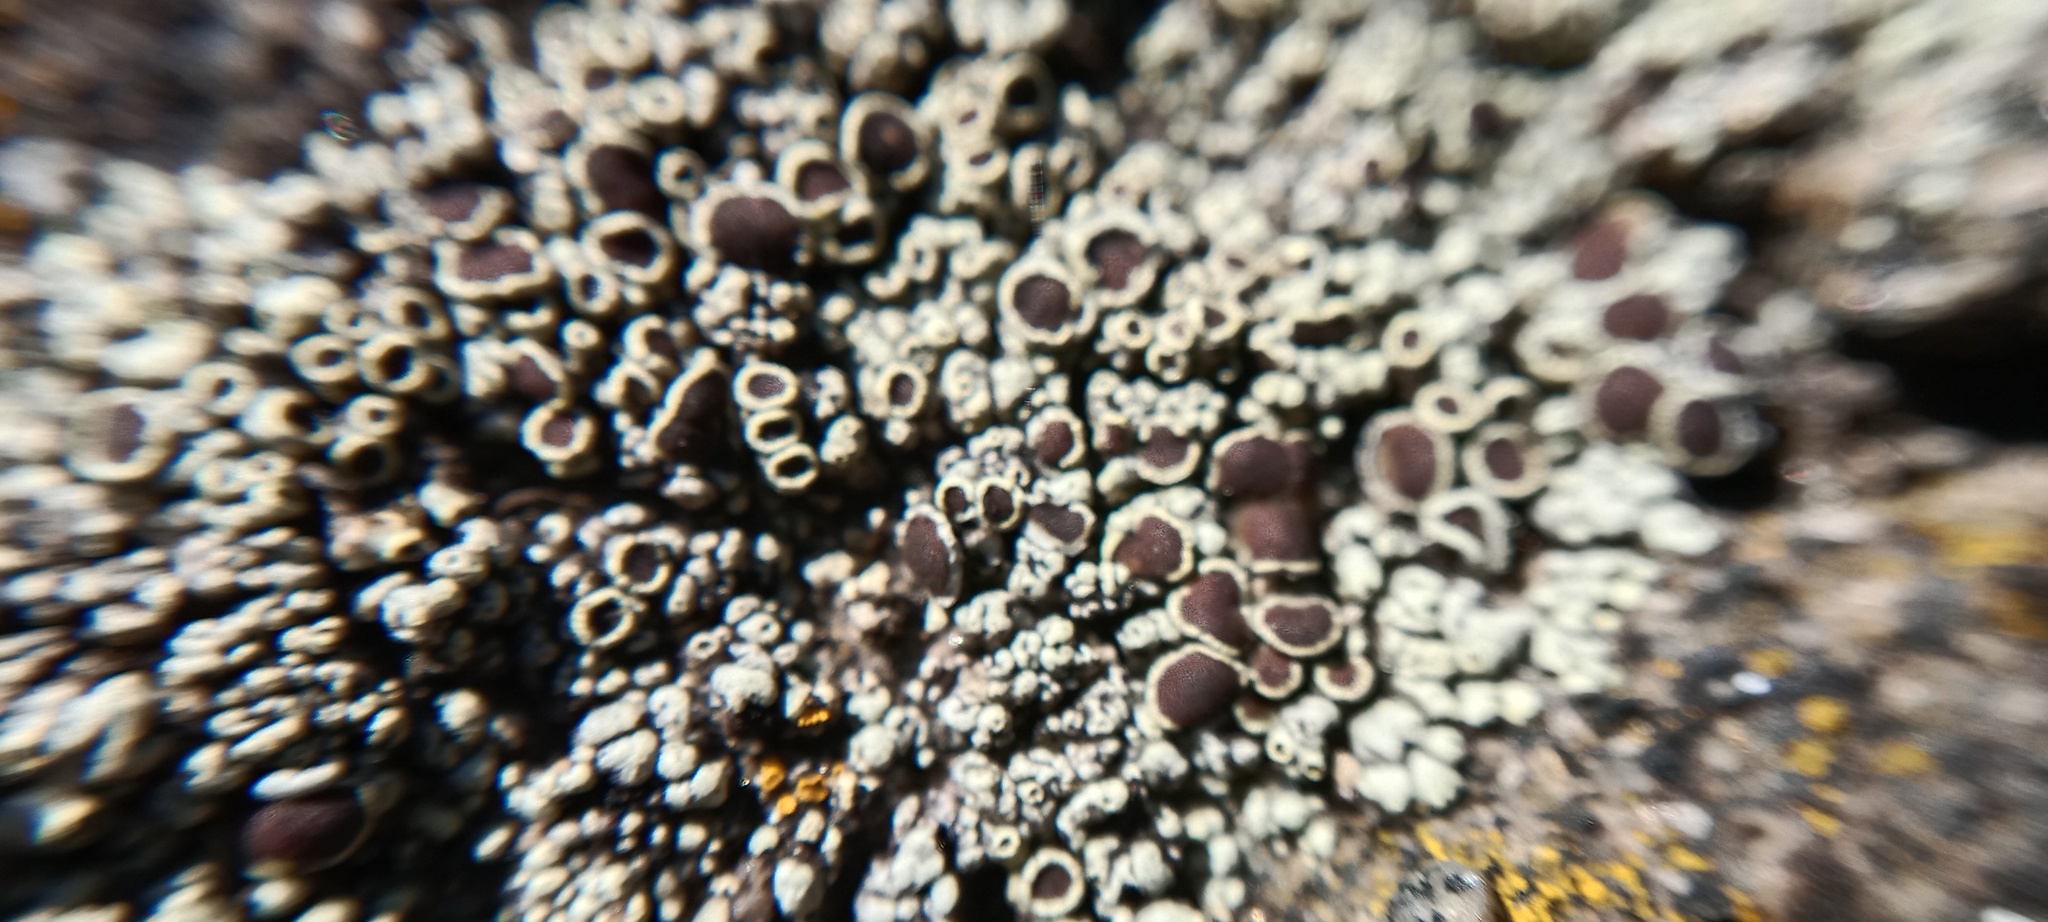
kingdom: Fungi
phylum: Ascomycota
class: Lecanoromycetes
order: Lecanorales
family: Lecanoraceae
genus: Lecanora
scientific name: Lecanora argopholis
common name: Varying rim lichen
